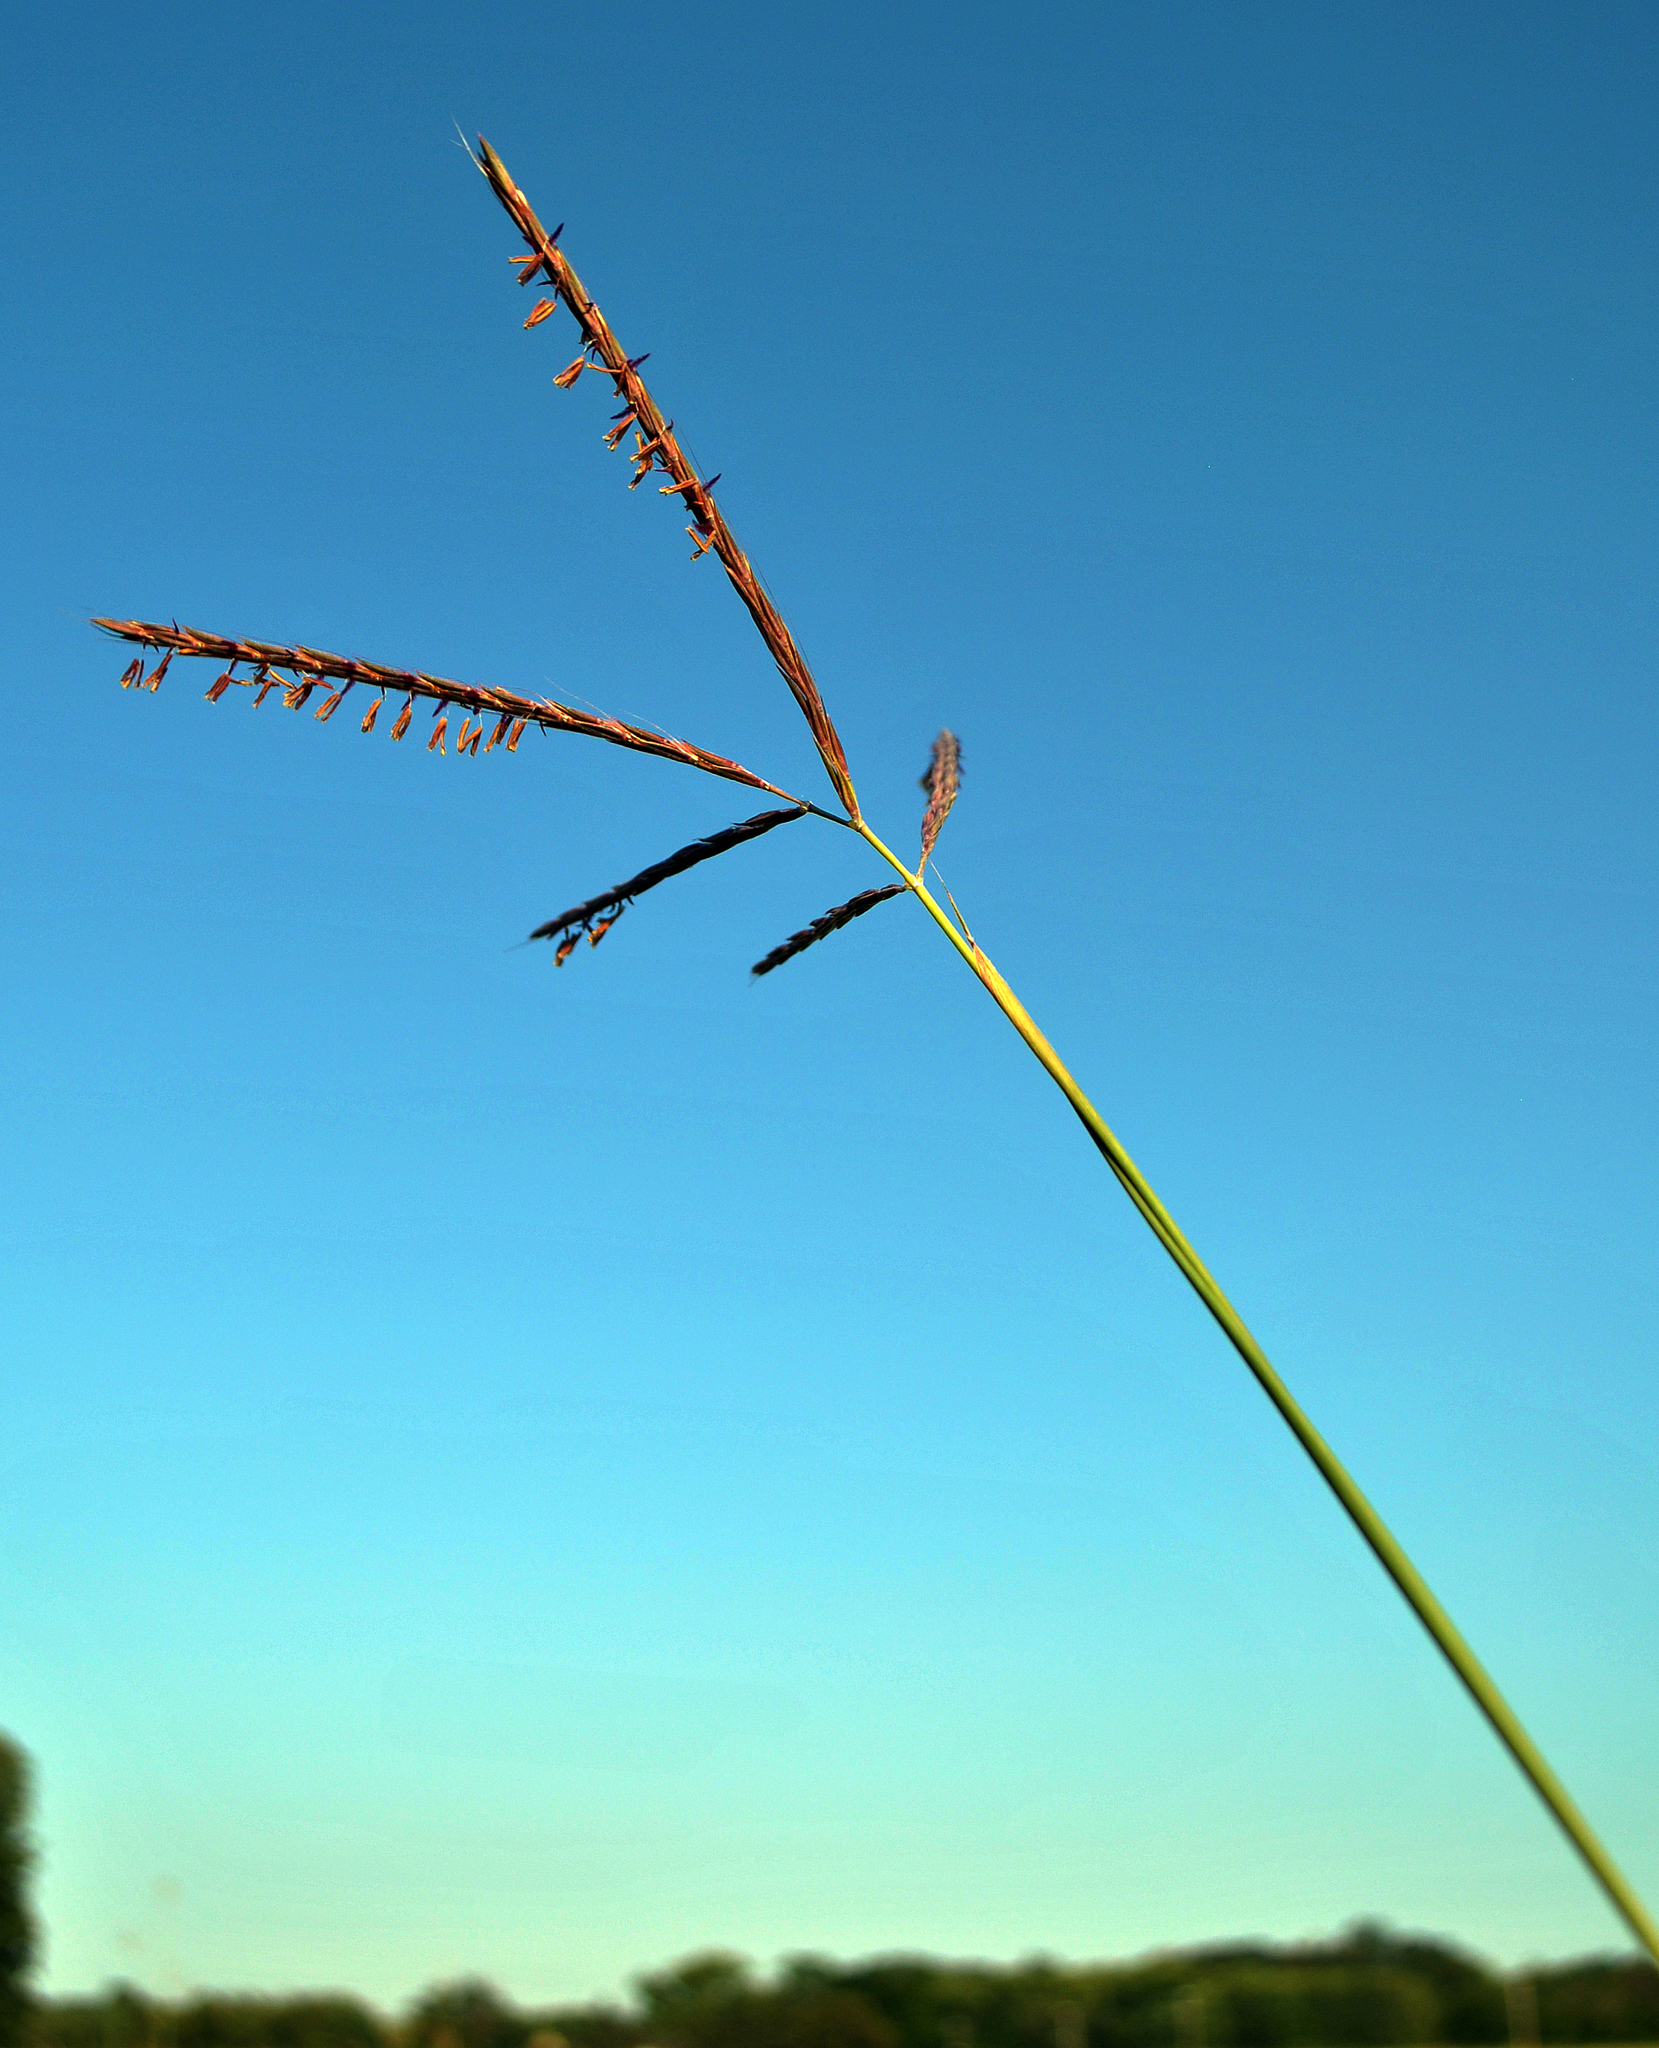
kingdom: Plantae
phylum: Tracheophyta
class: Liliopsida
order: Poales
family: Poaceae
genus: Andropogon
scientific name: Andropogon gerardi
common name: Big bluestem
